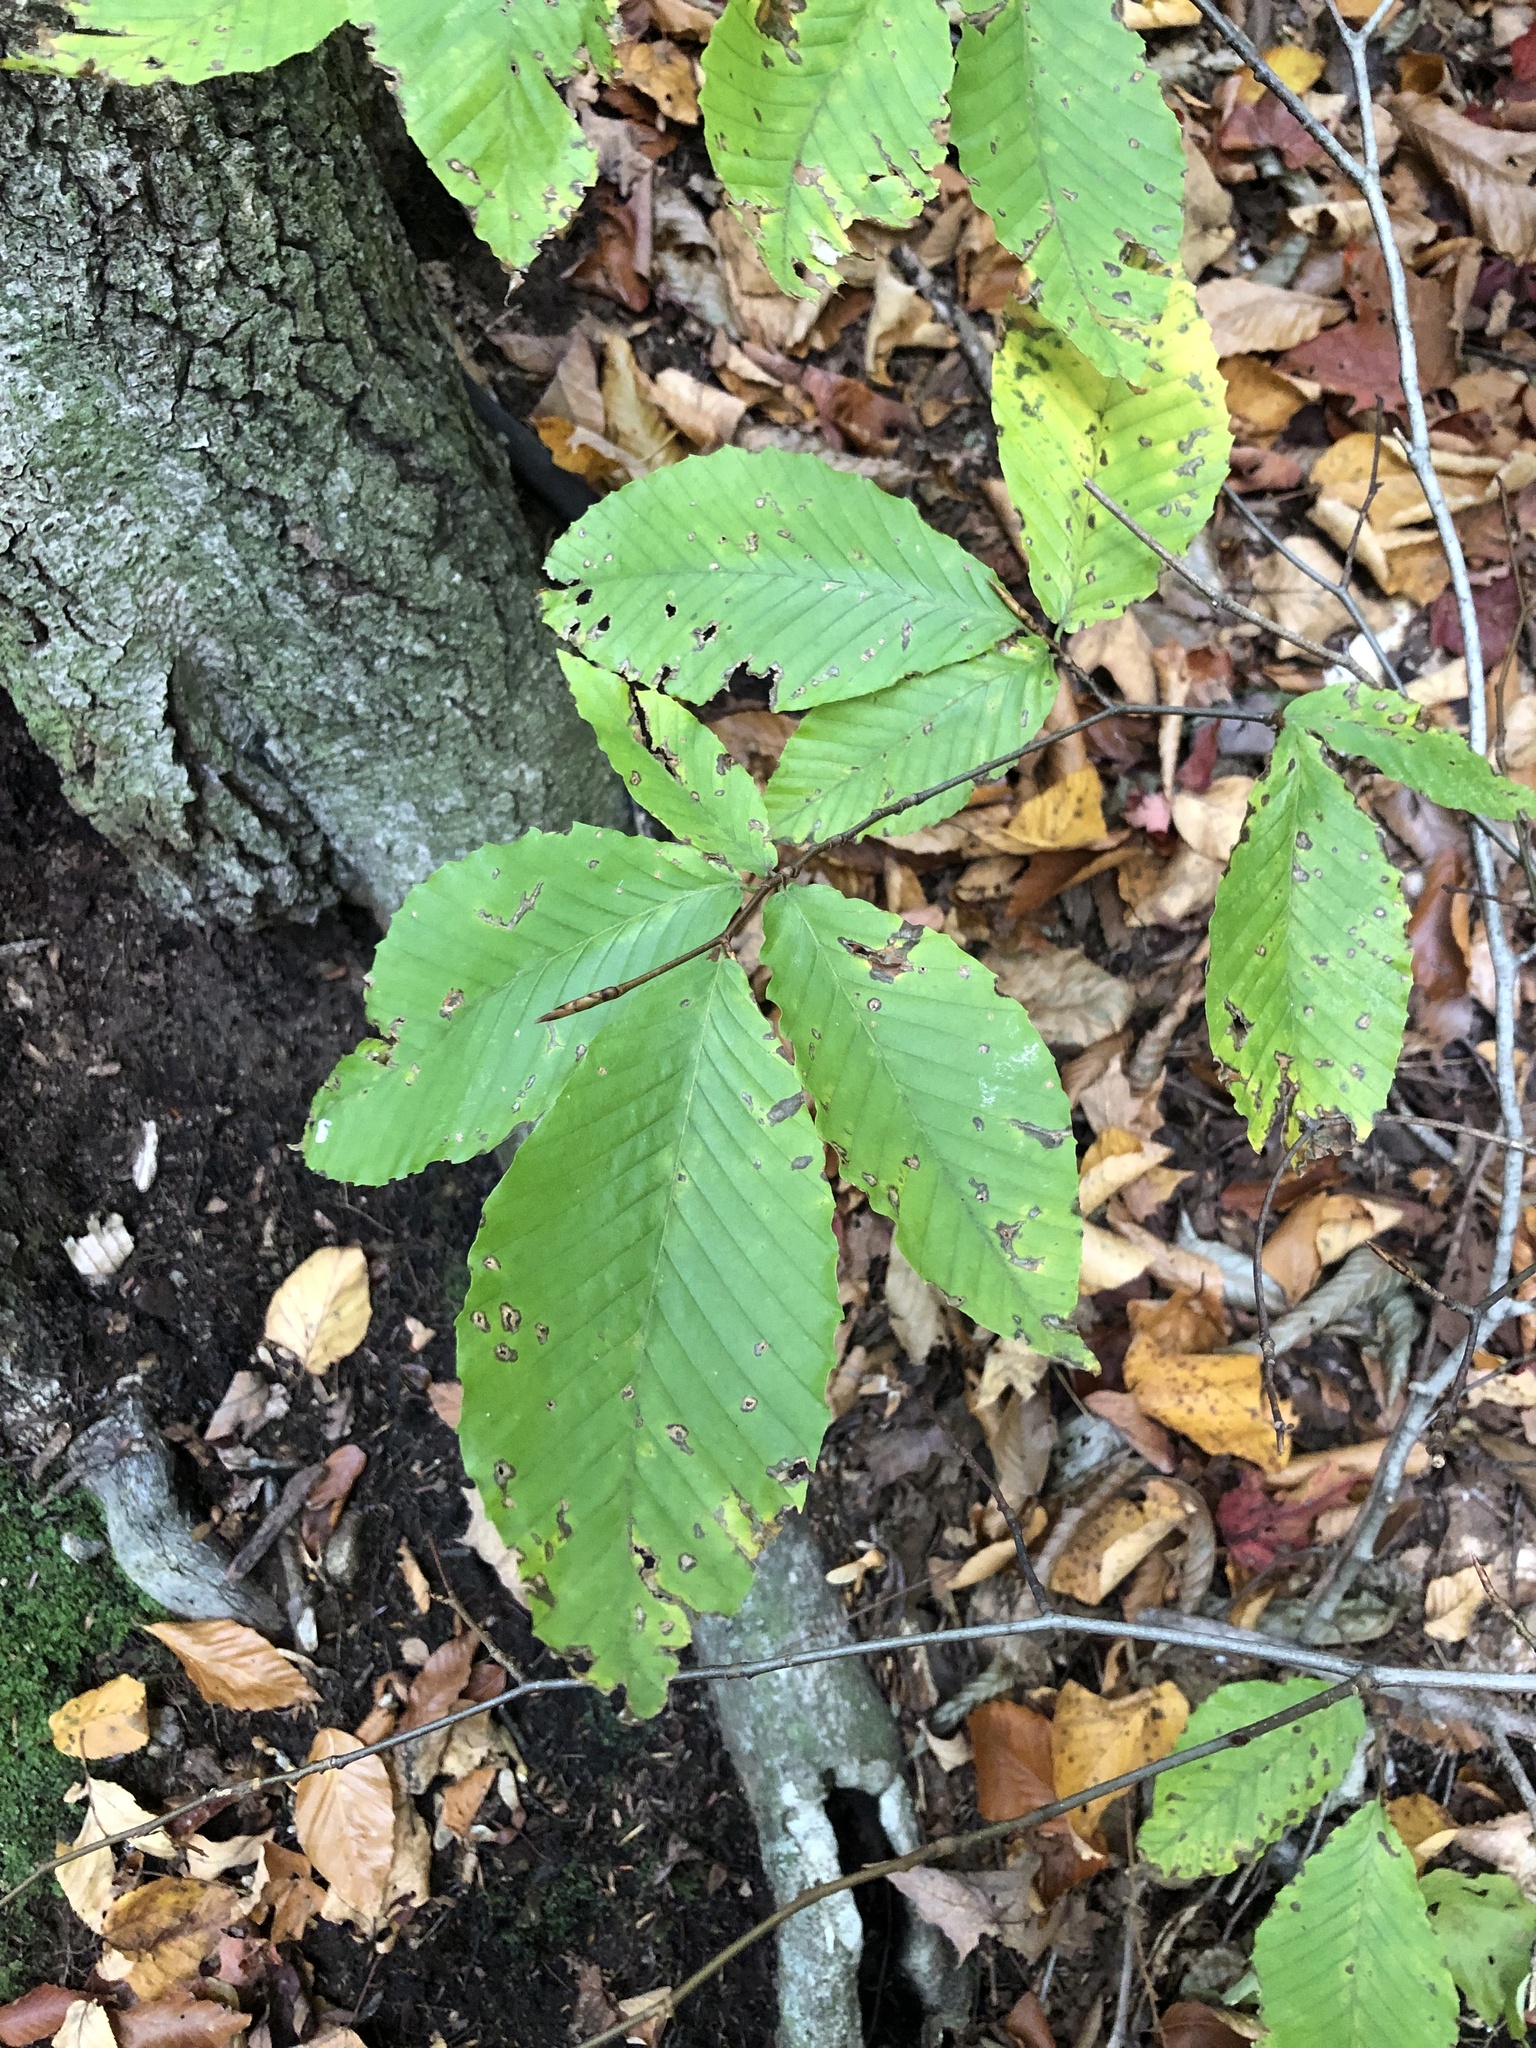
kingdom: Plantae
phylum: Tracheophyta
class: Magnoliopsida
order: Fagales
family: Fagaceae
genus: Fagus
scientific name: Fagus grandifolia
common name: American beech
